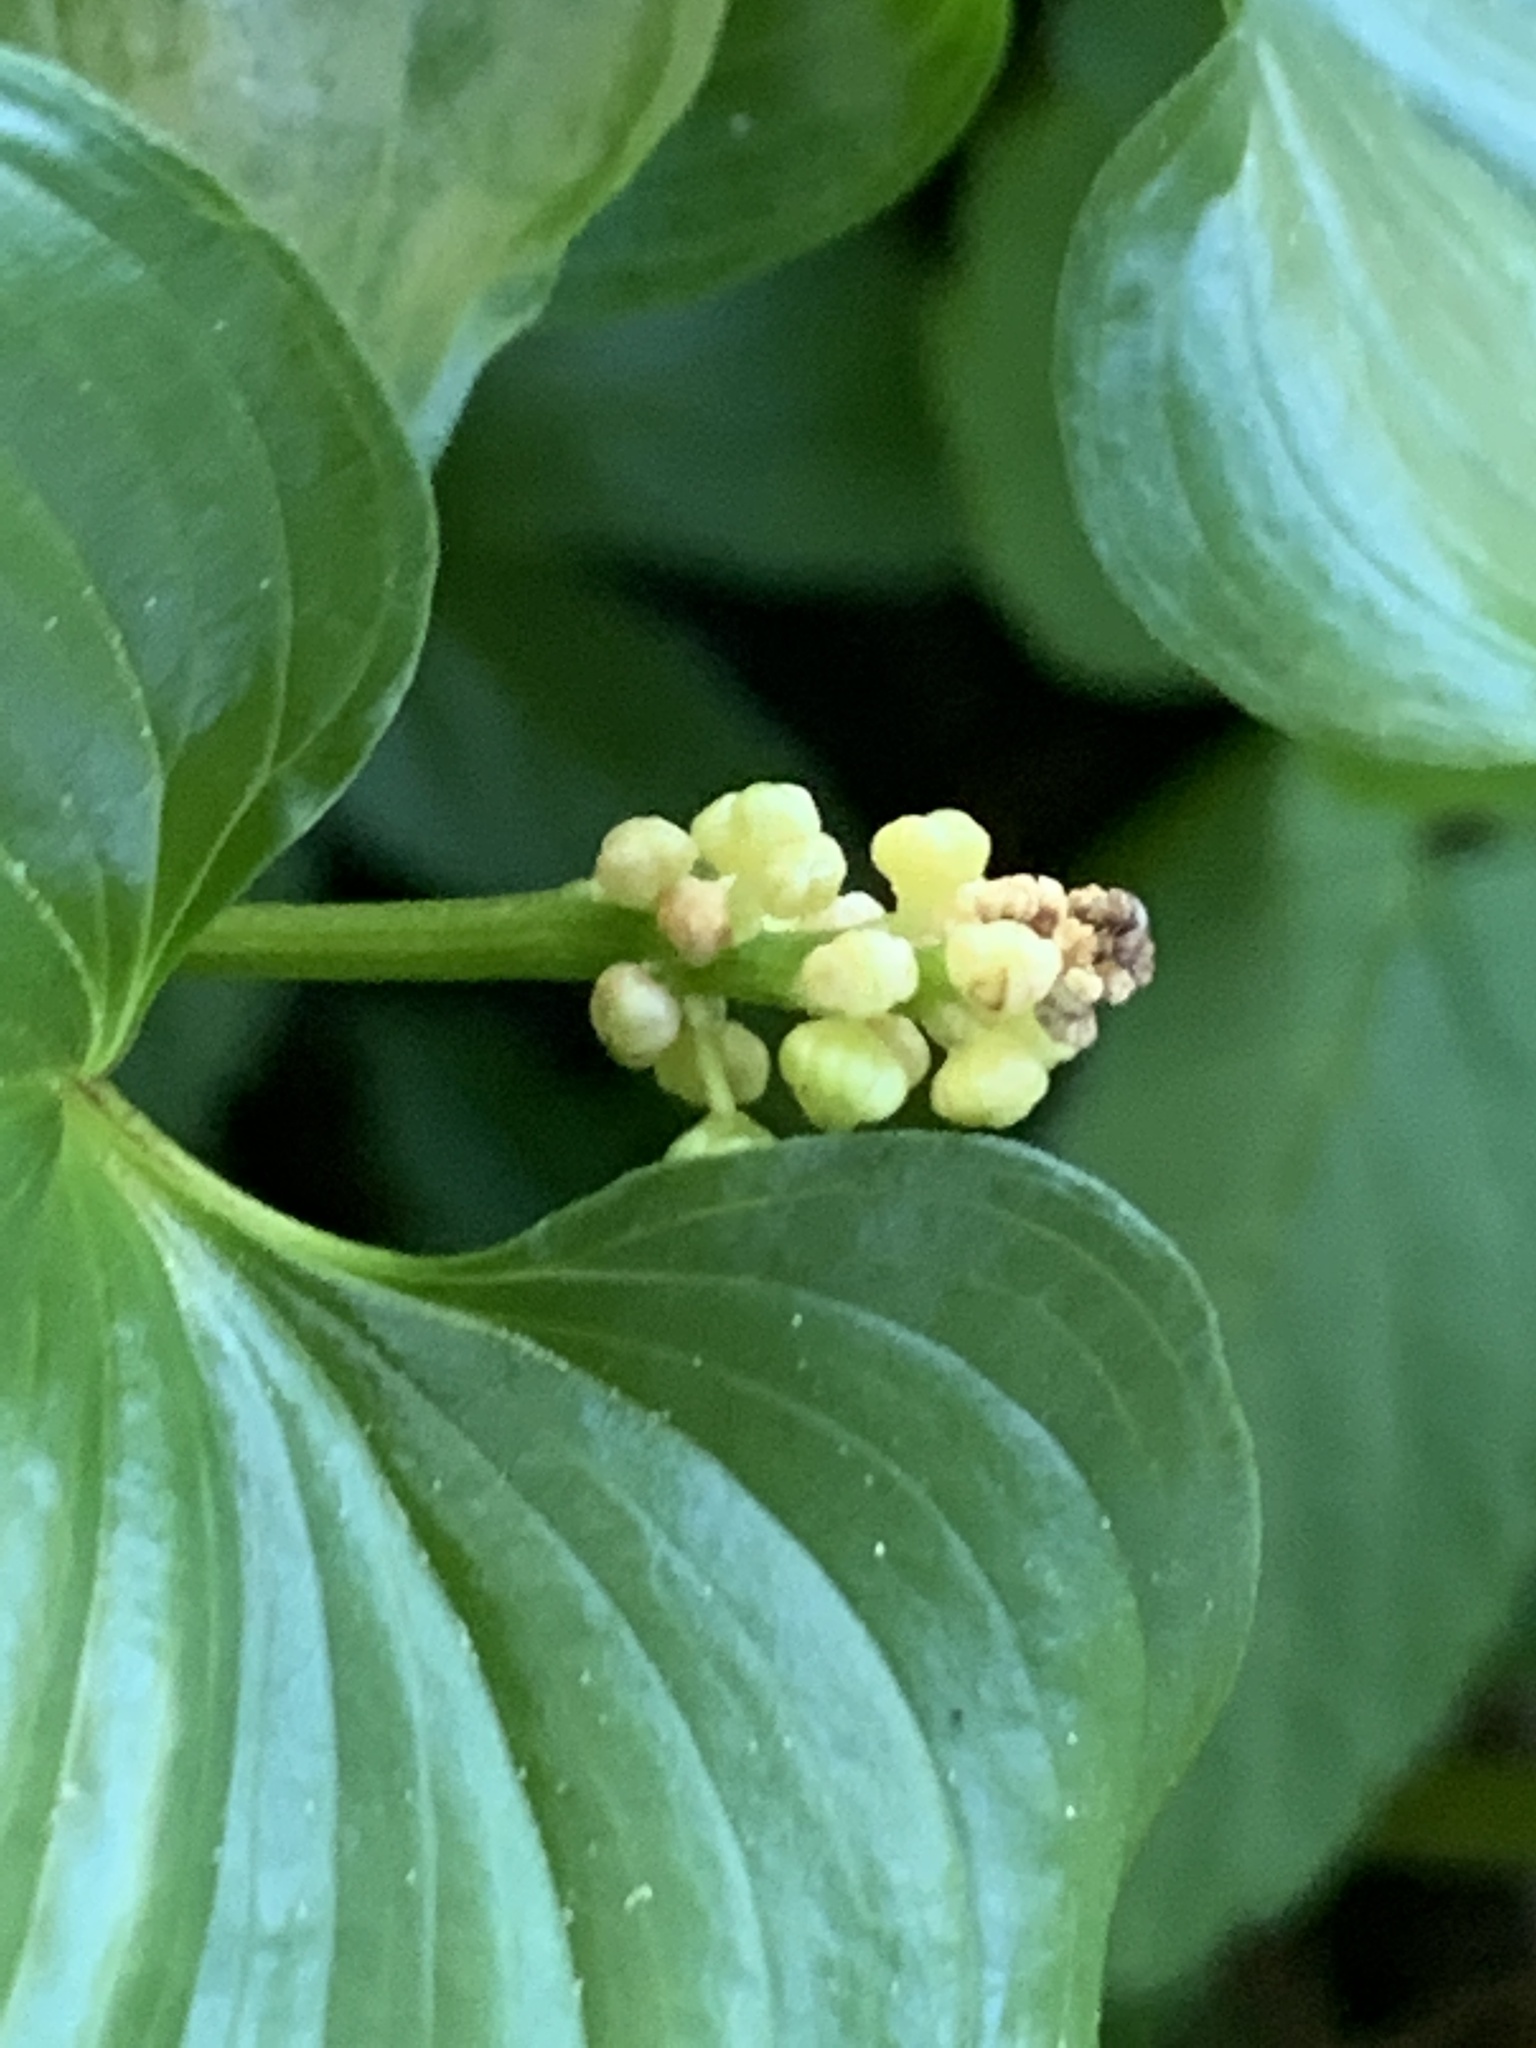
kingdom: Plantae
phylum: Tracheophyta
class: Liliopsida
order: Asparagales
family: Asparagaceae
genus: Maianthemum
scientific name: Maianthemum dilatatum
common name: False lily-of-the-valley
